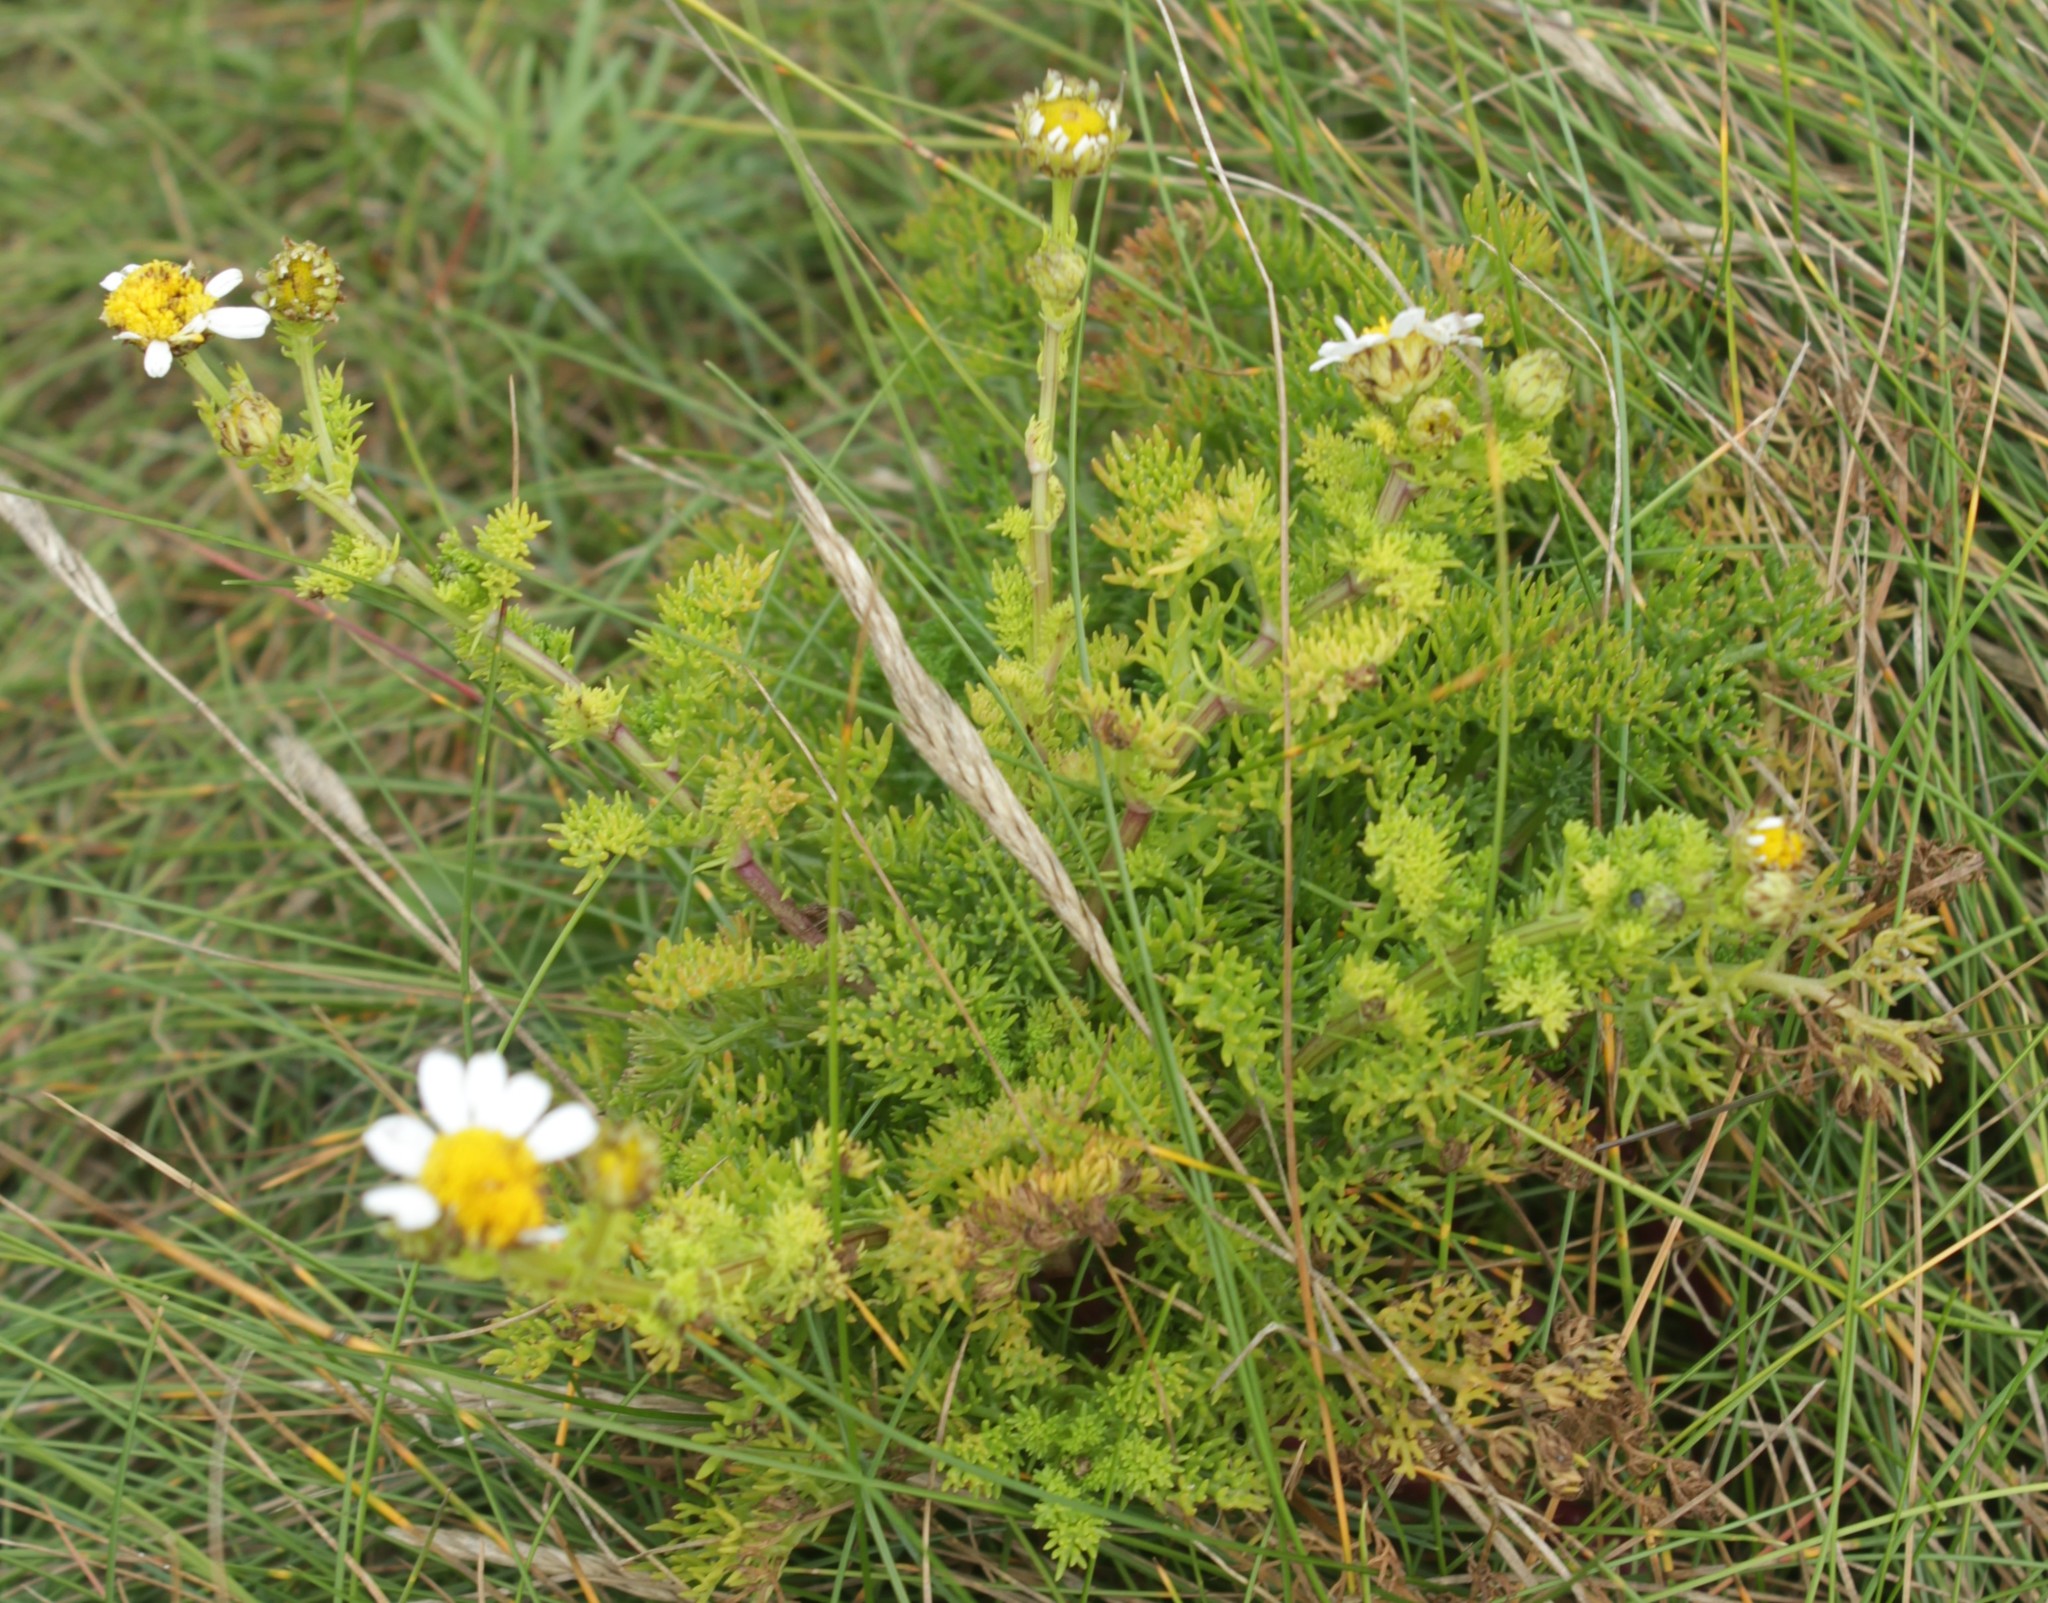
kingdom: Plantae
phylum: Tracheophyta
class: Magnoliopsida
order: Asterales
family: Asteraceae
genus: Tripleurospermum
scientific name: Tripleurospermum maritimum
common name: Sea mayweed
